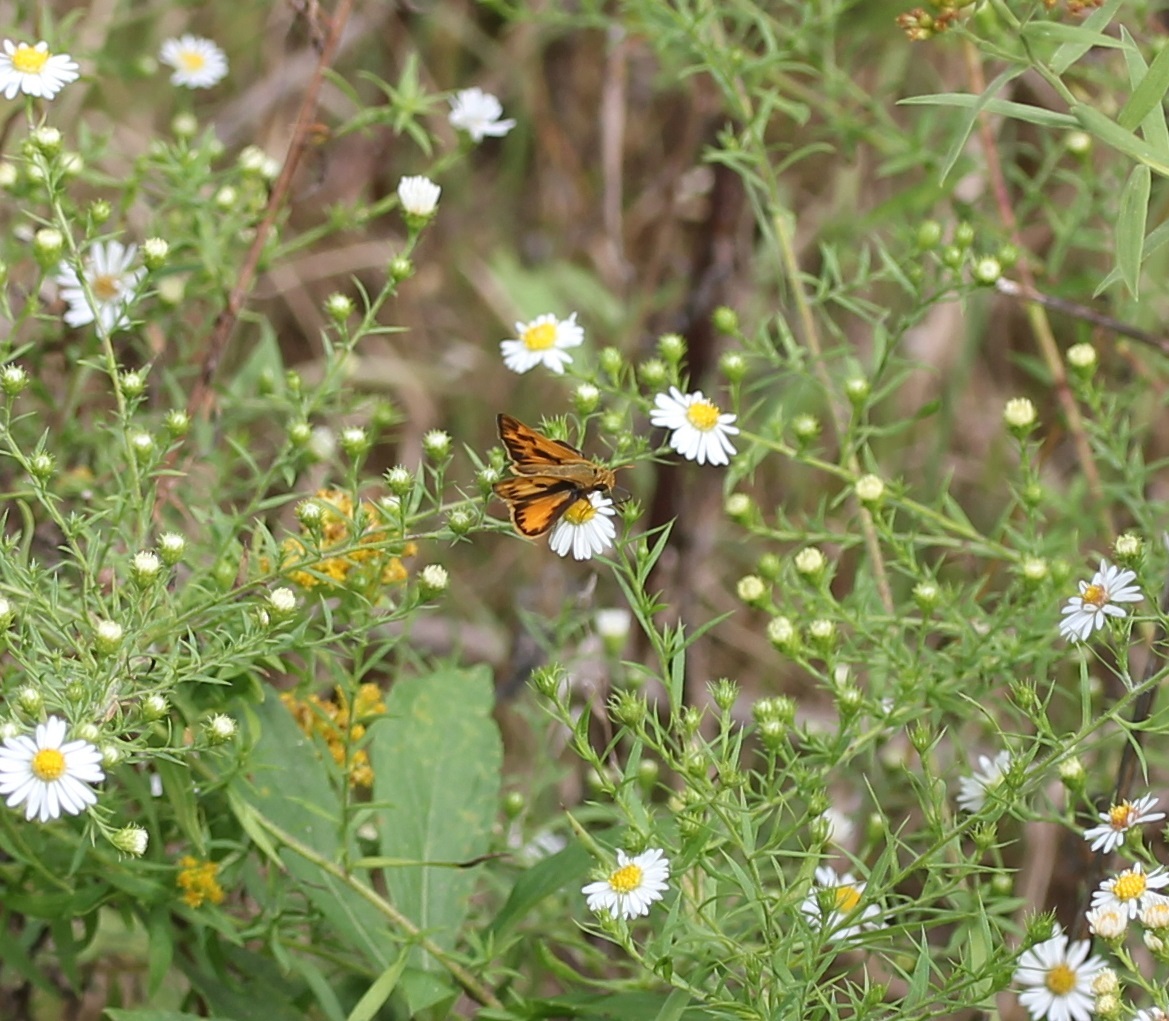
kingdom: Animalia
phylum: Arthropoda
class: Insecta
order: Lepidoptera
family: Hesperiidae
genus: Hylephila
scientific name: Hylephila phyleus
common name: Fiery skipper
